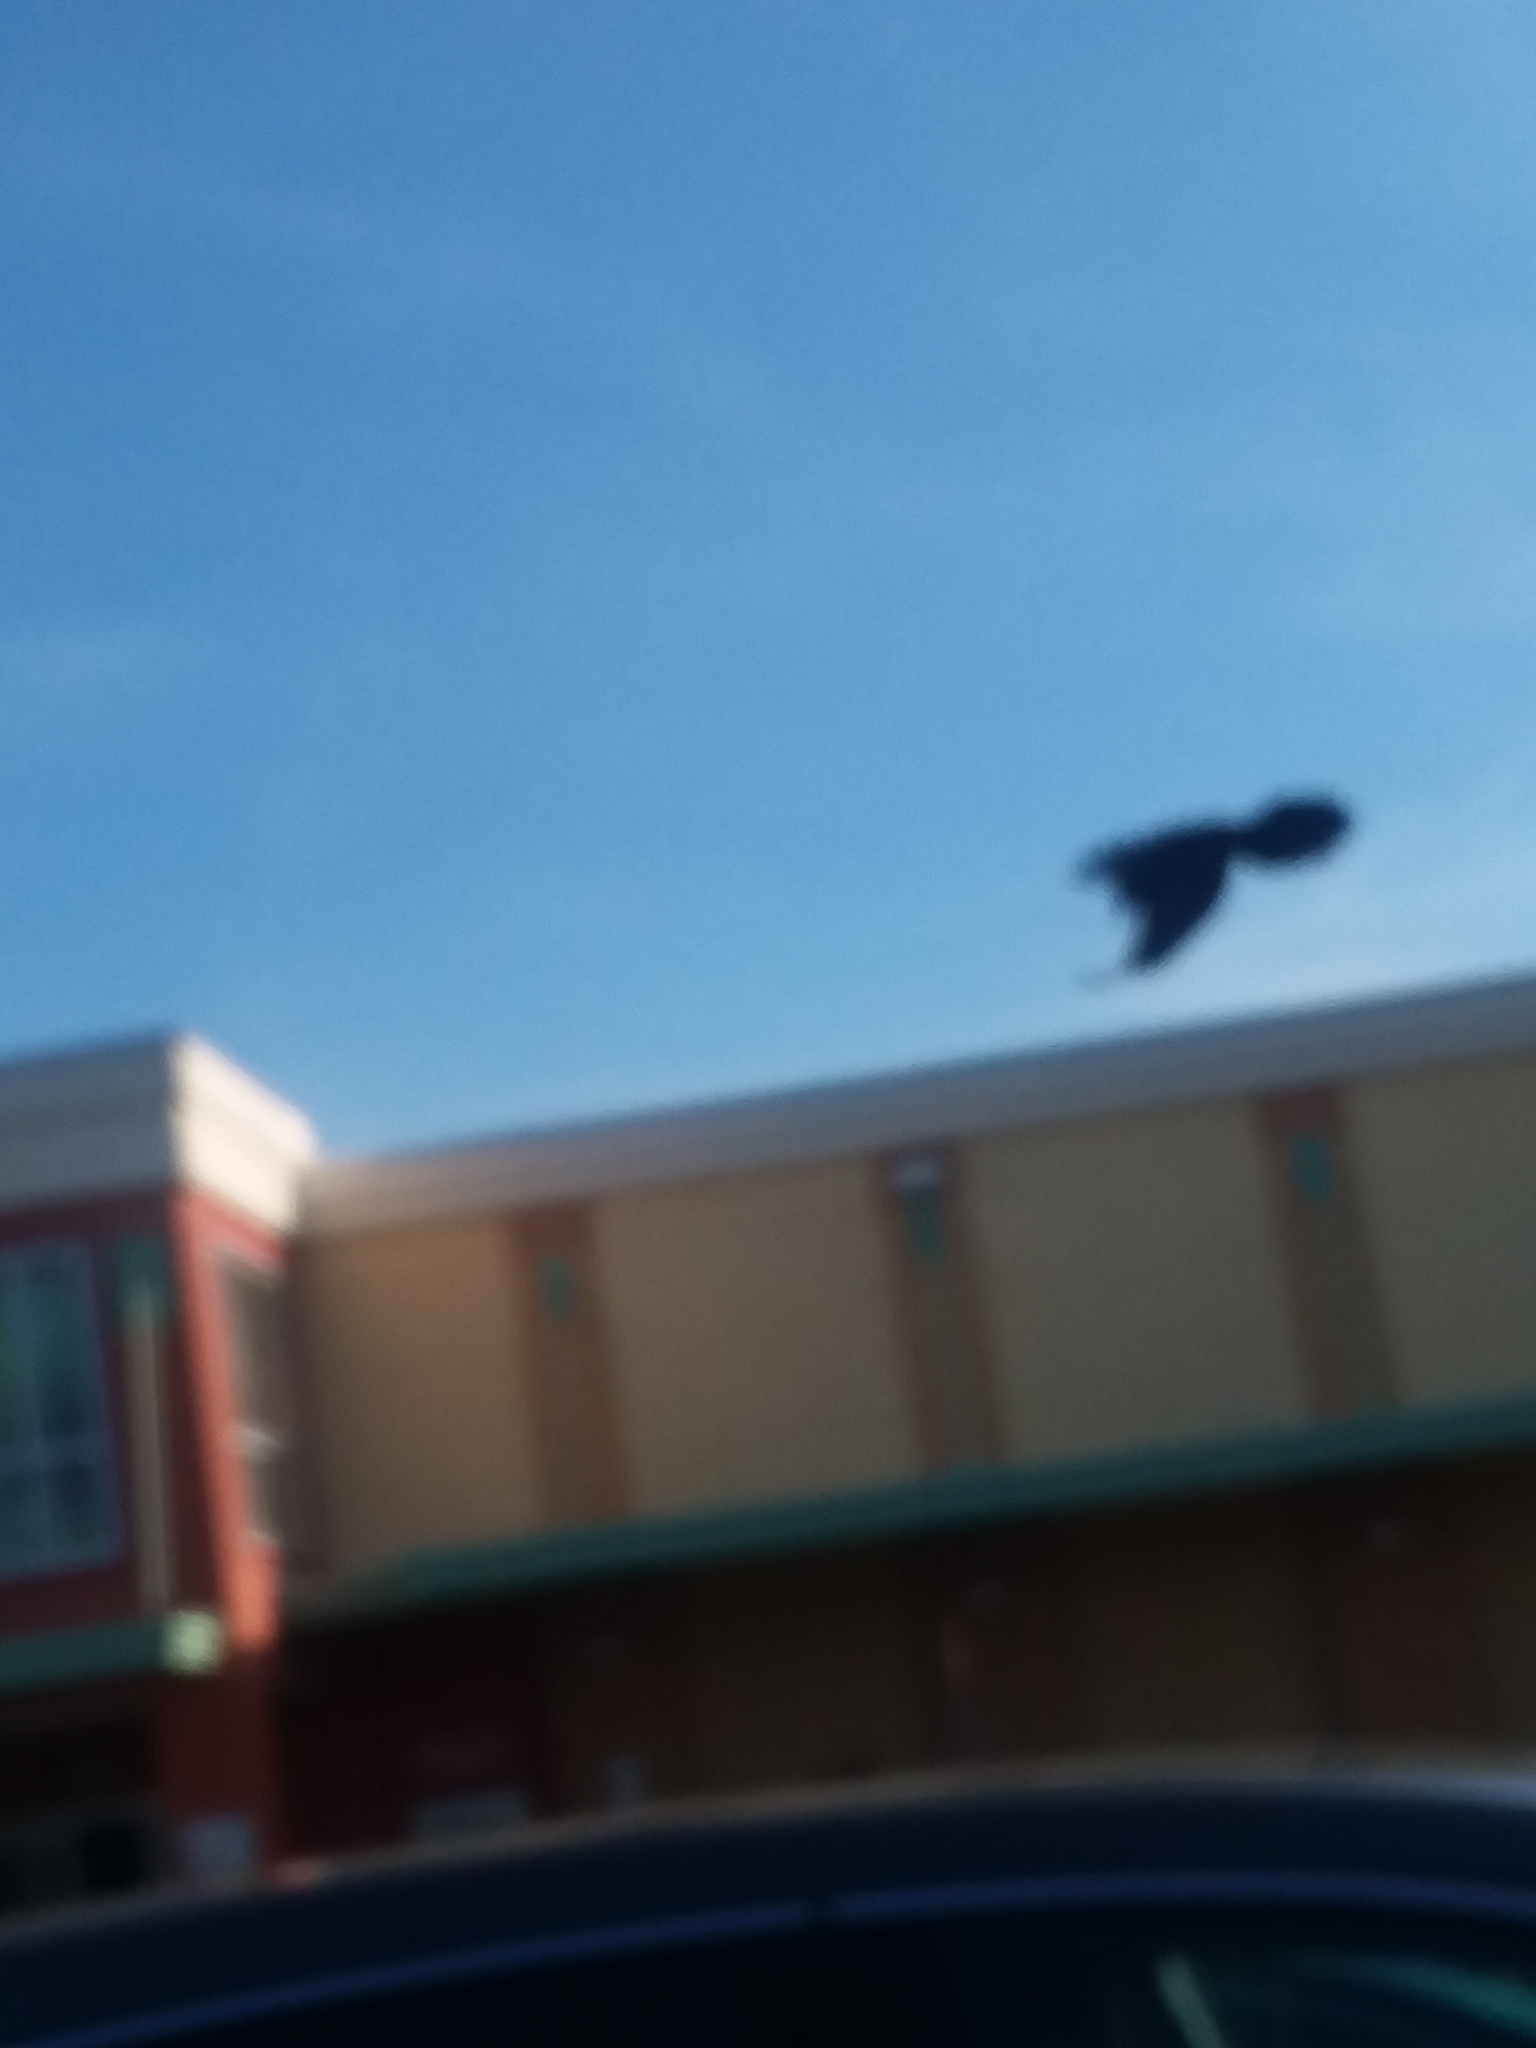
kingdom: Animalia
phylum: Chordata
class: Aves
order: Passeriformes
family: Icteridae
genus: Quiscalus
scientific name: Quiscalus major
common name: Boat-tailed grackle
